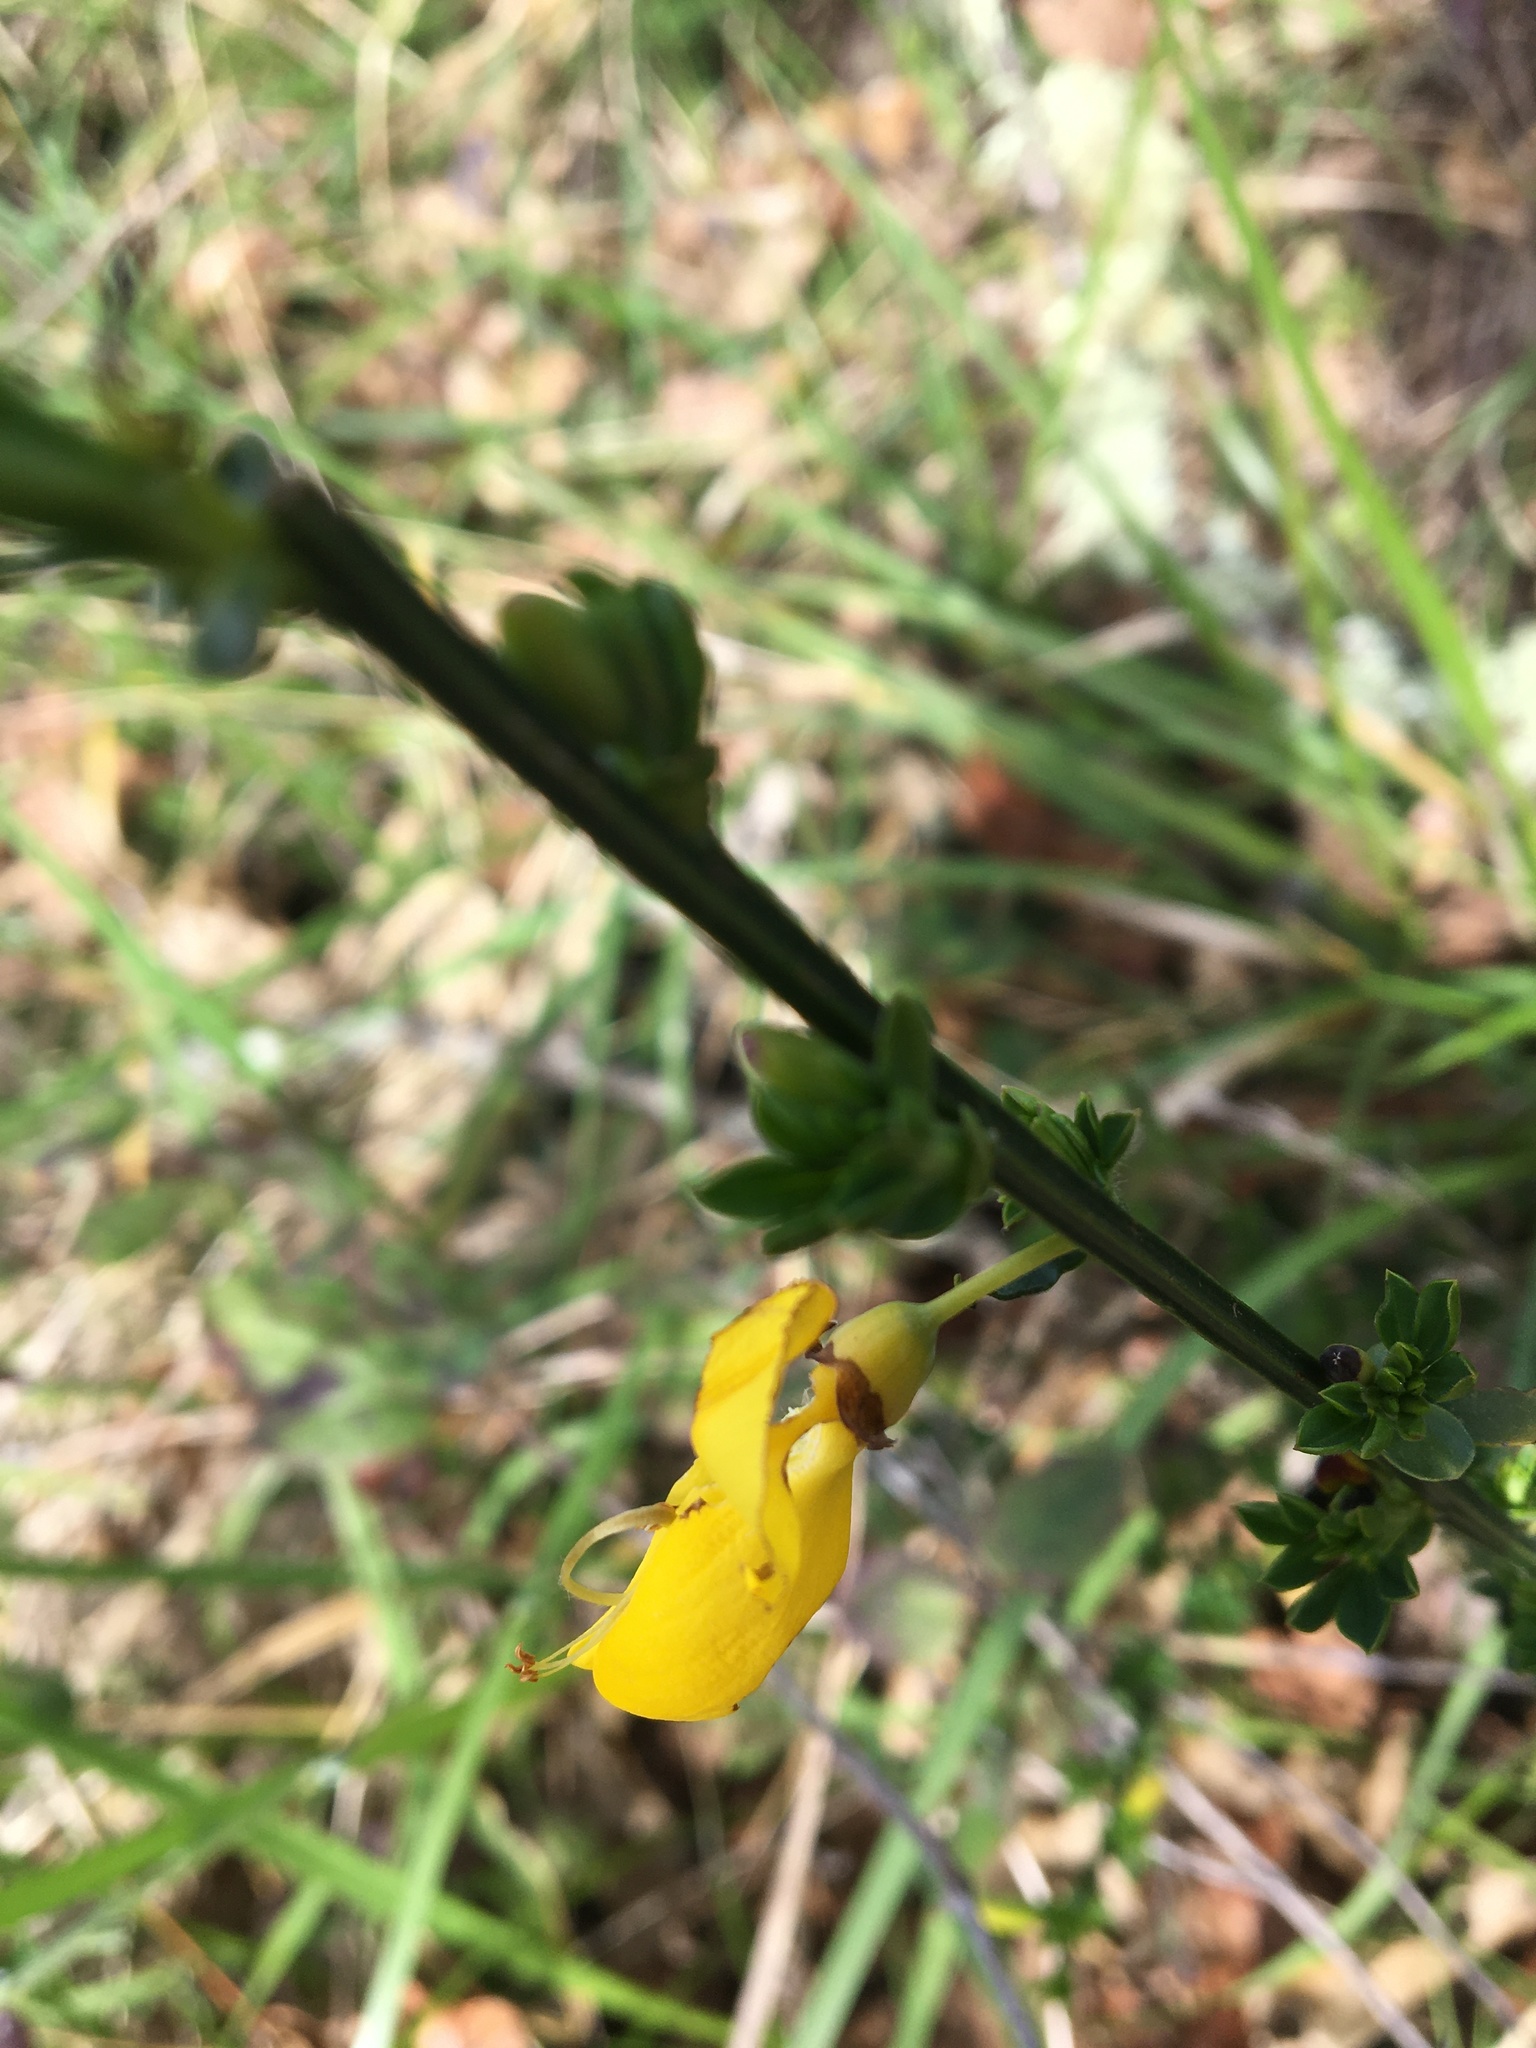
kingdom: Plantae
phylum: Tracheophyta
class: Magnoliopsida
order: Fabales
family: Fabaceae
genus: Cytisus
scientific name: Cytisus scoparius
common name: Scotch broom
